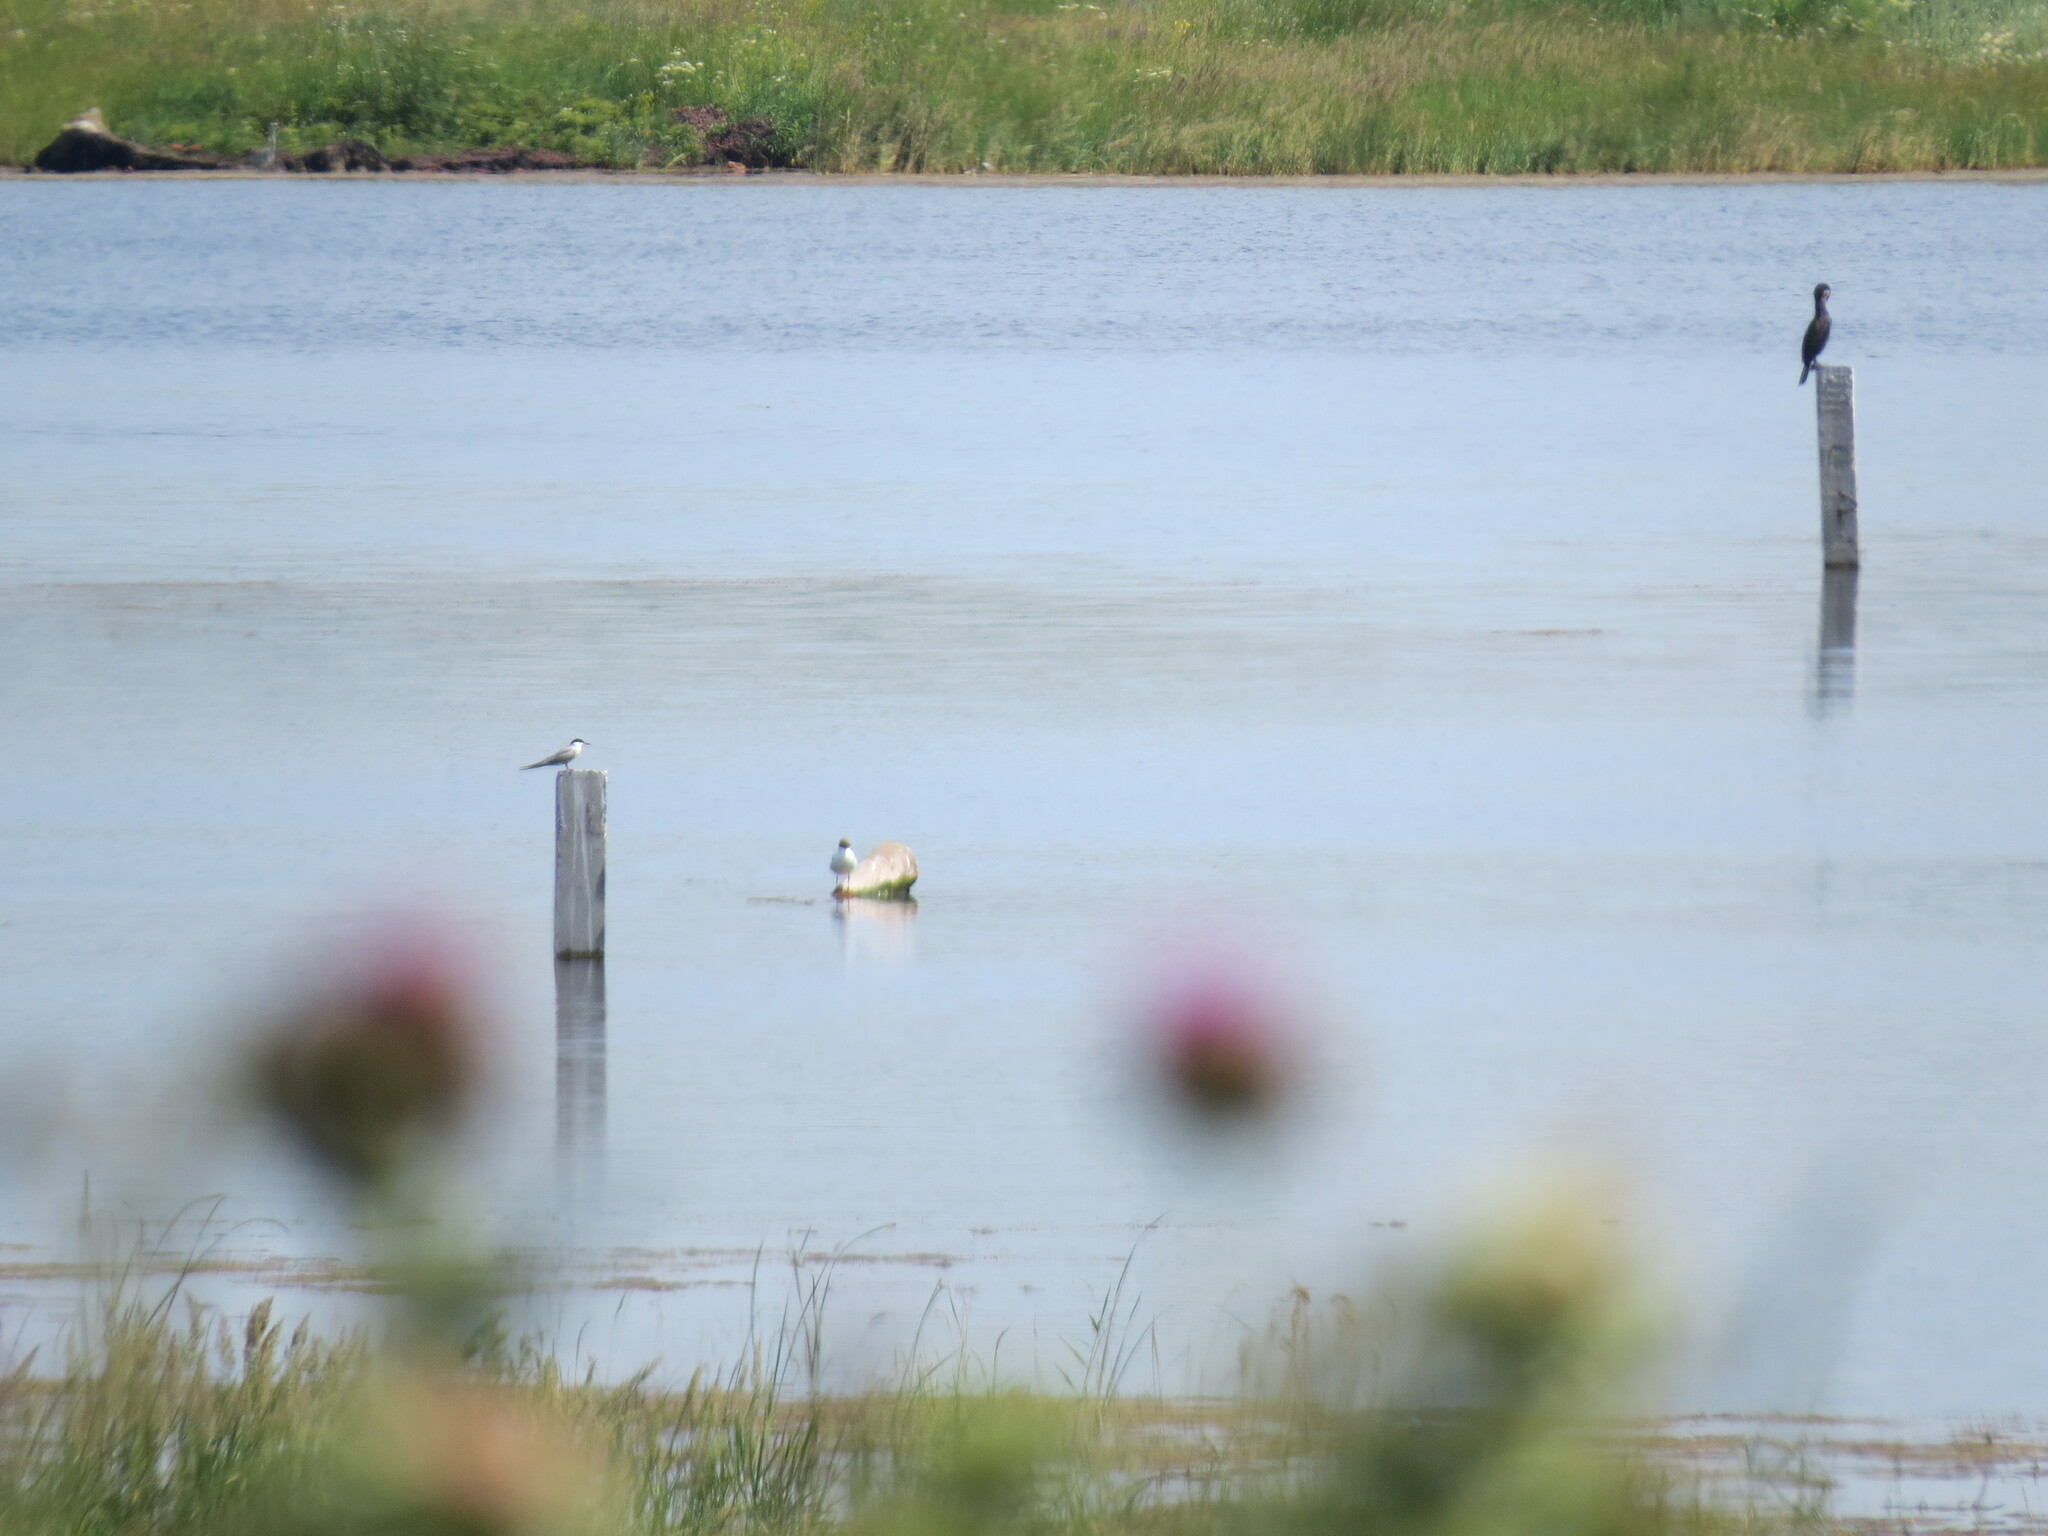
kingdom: Animalia
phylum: Chordata
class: Aves
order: Charadriiformes
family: Laridae
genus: Chroicocephalus
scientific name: Chroicocephalus ridibundus
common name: Black-headed gull
